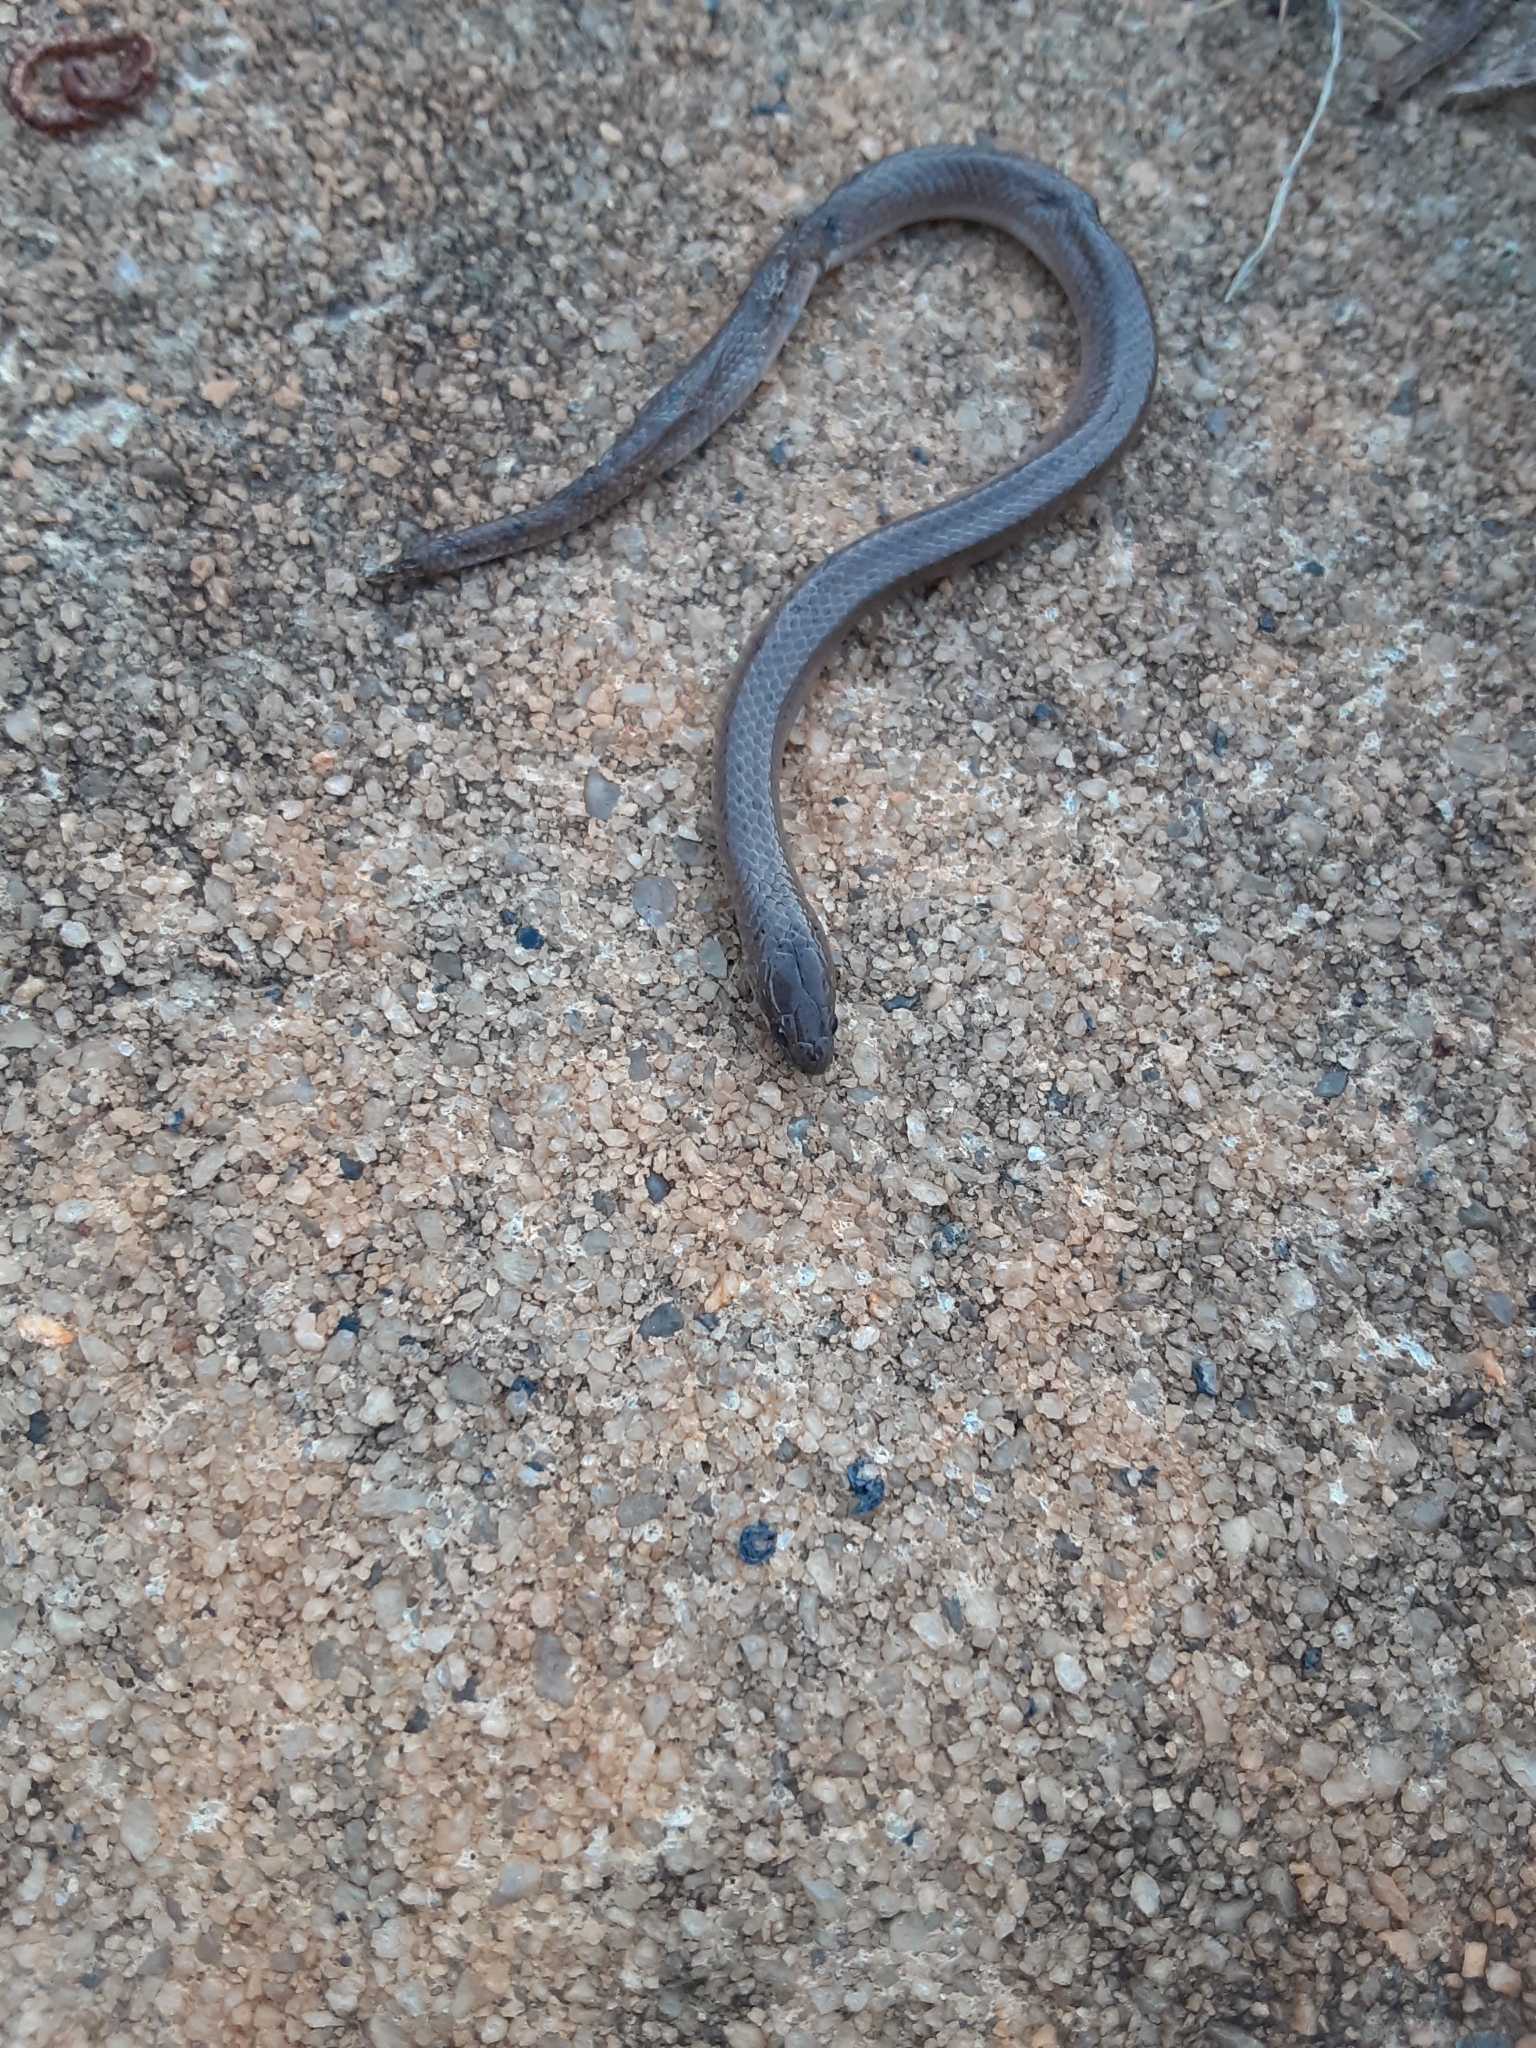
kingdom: Animalia
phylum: Chordata
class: Squamata
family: Colubridae
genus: Virginia
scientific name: Virginia valeriae
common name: Smooth earth snake
